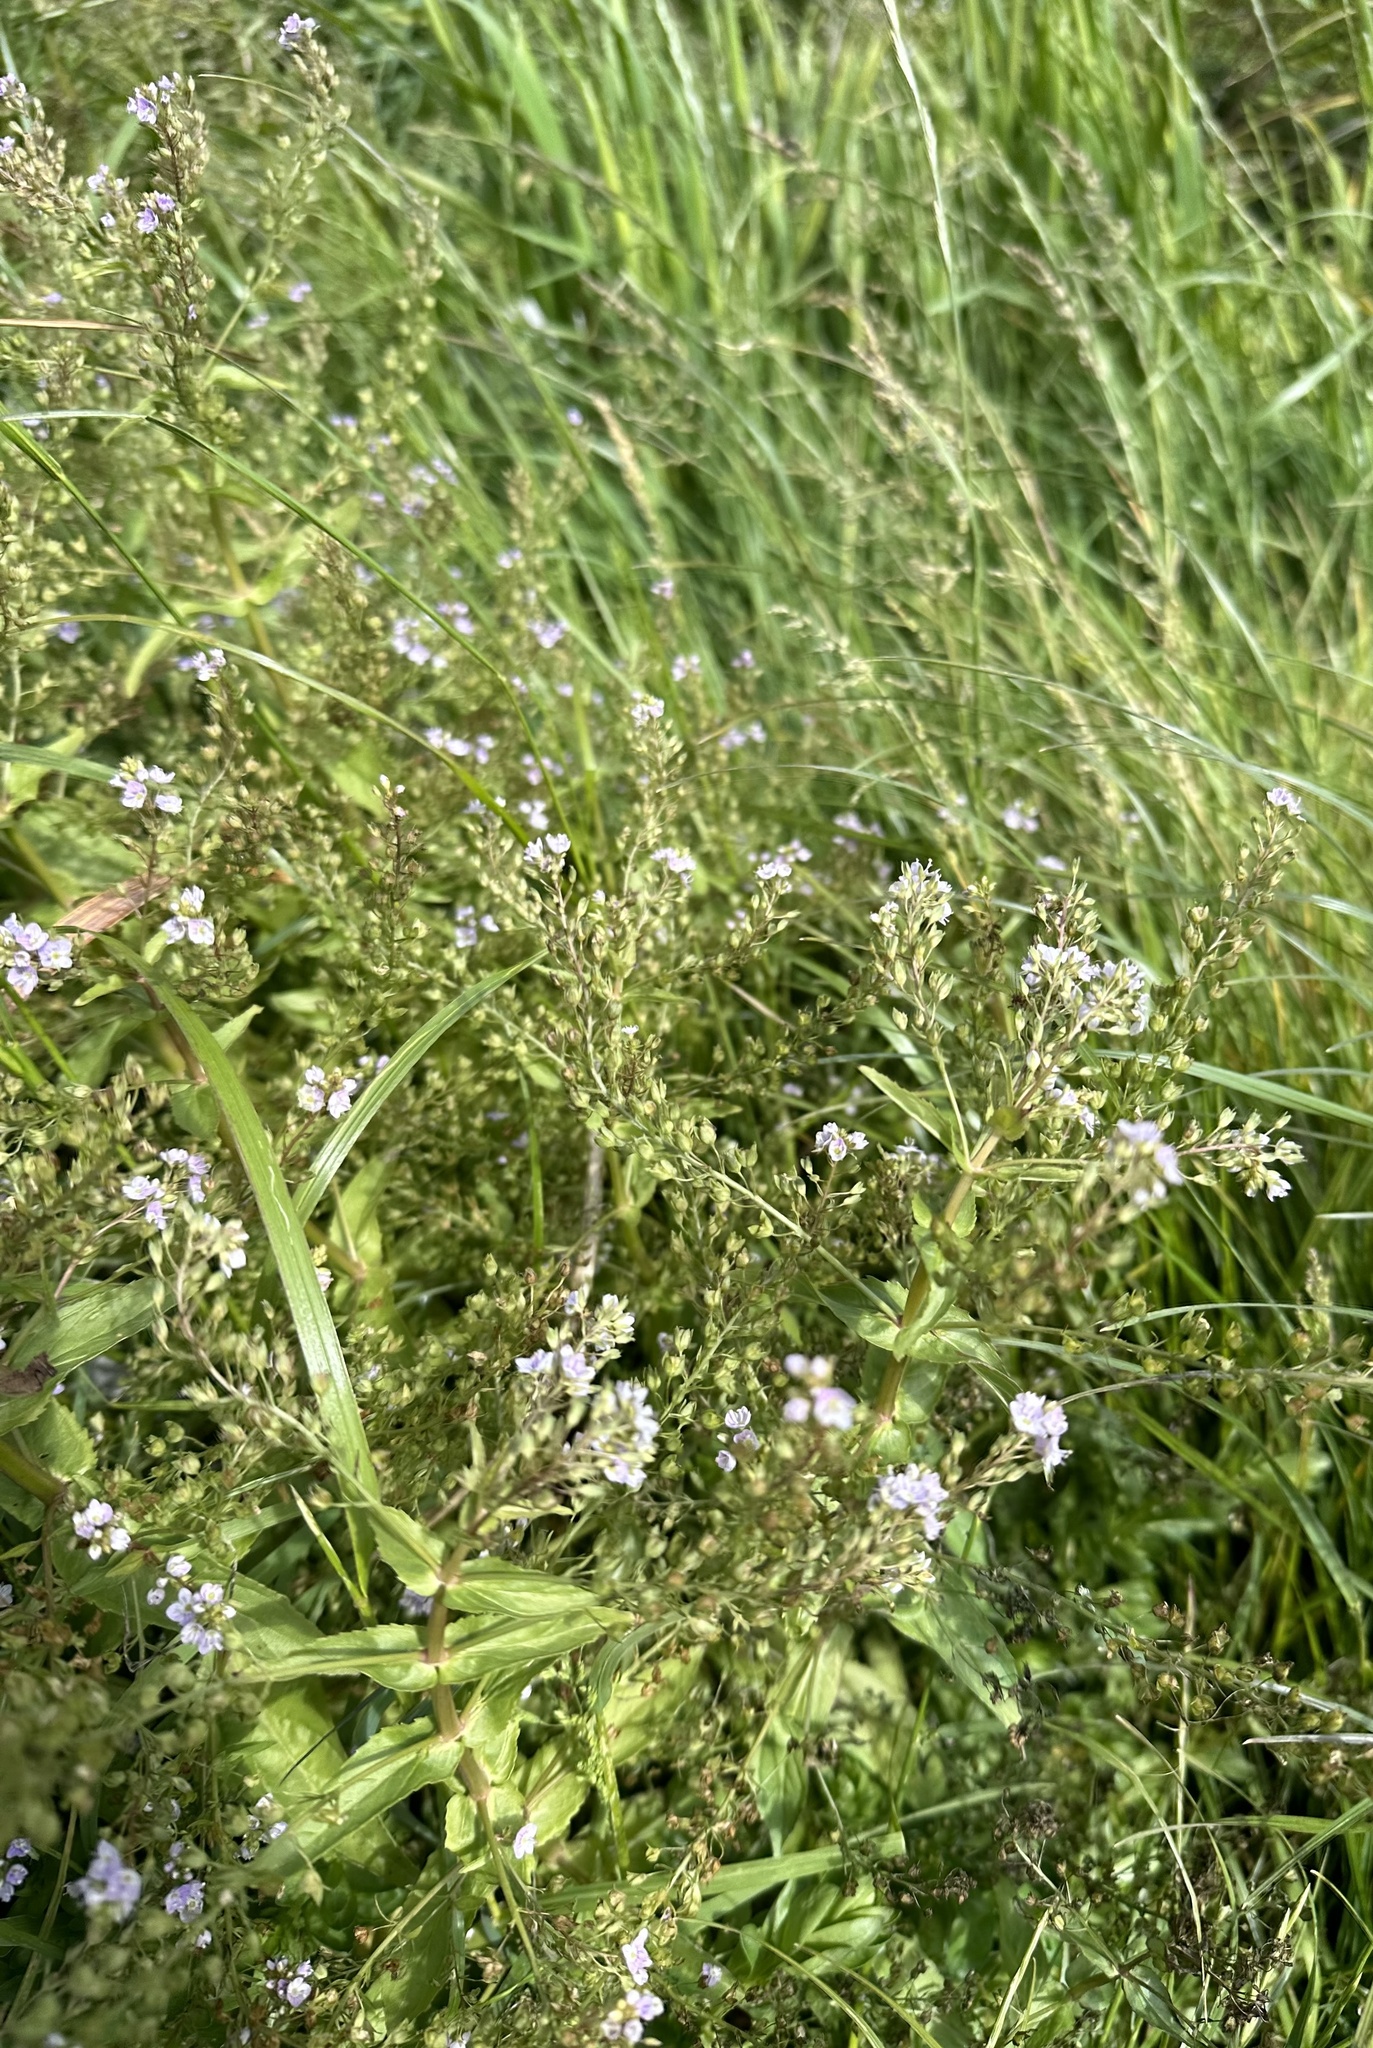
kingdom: Plantae
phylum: Tracheophyta
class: Magnoliopsida
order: Lamiales
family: Plantaginaceae
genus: Veronica
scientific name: Veronica anagallis-aquatica
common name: Water speedwell
